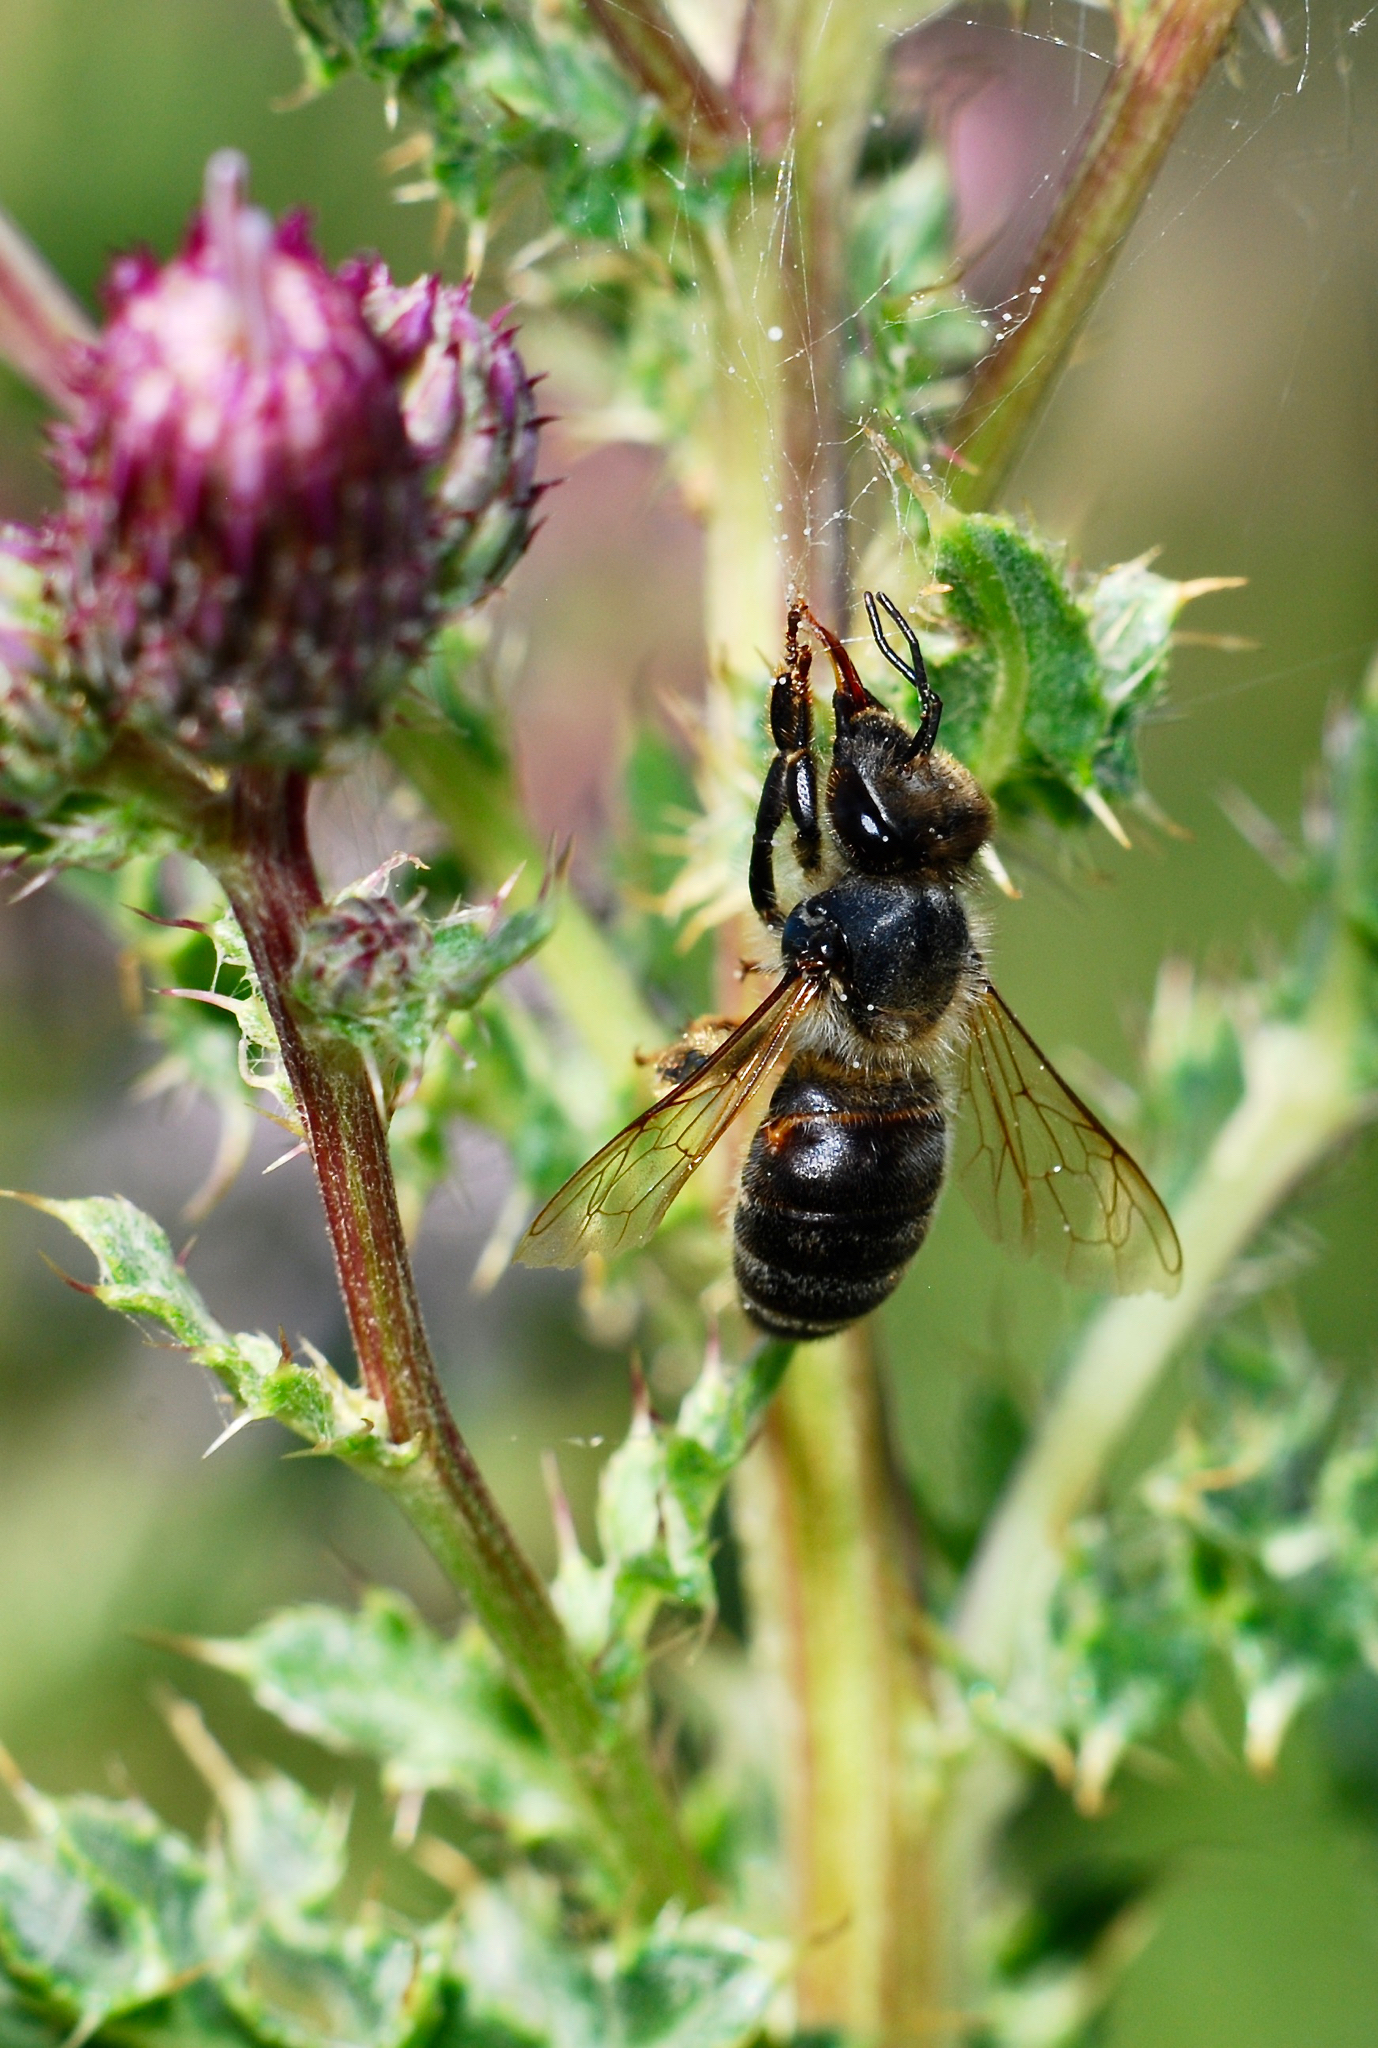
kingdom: Animalia
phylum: Arthropoda
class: Insecta
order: Hymenoptera
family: Apidae
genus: Apis
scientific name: Apis mellifera
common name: Honey bee
